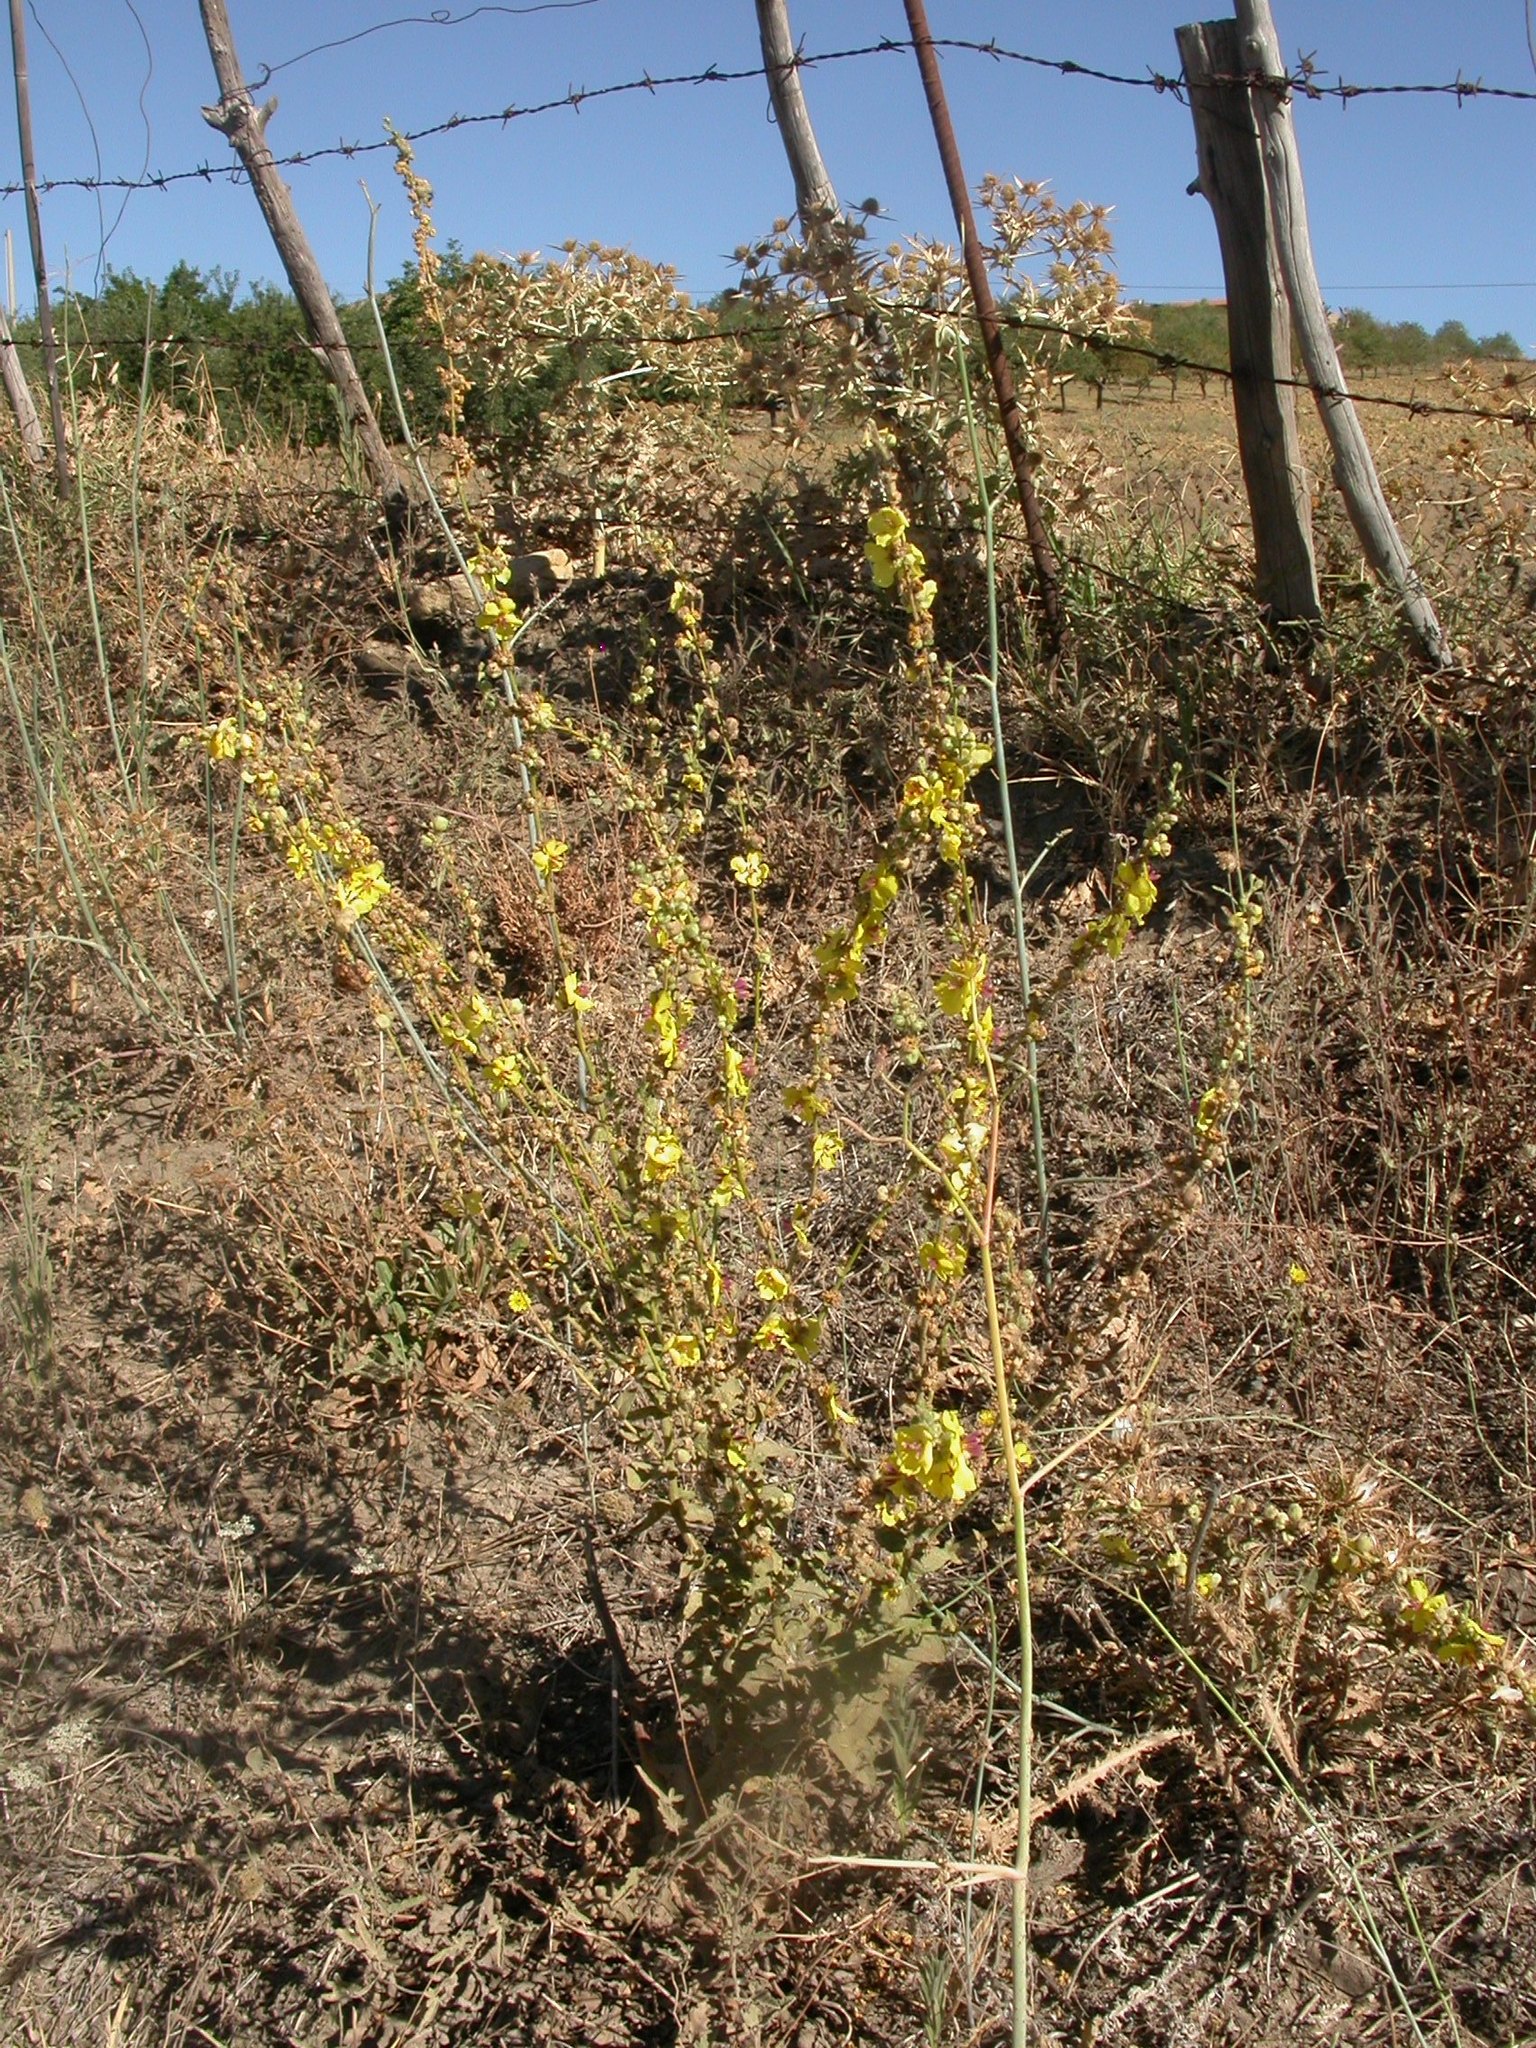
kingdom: Plantae
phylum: Tracheophyta
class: Magnoliopsida
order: Lamiales
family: Scrophulariaceae
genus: Verbascum
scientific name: Verbascum sinuatum
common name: Wavyleaf mullein
